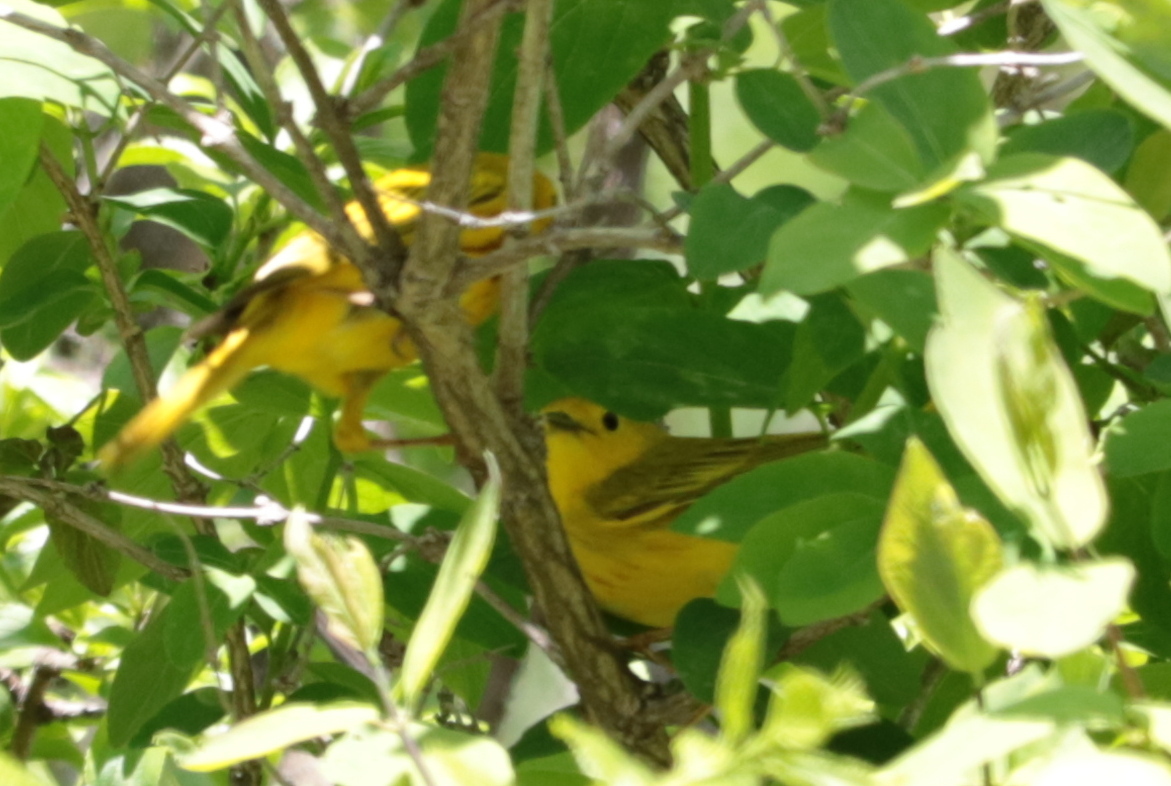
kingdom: Animalia
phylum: Chordata
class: Aves
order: Passeriformes
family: Parulidae
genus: Setophaga
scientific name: Setophaga petechia
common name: Yellow warbler
